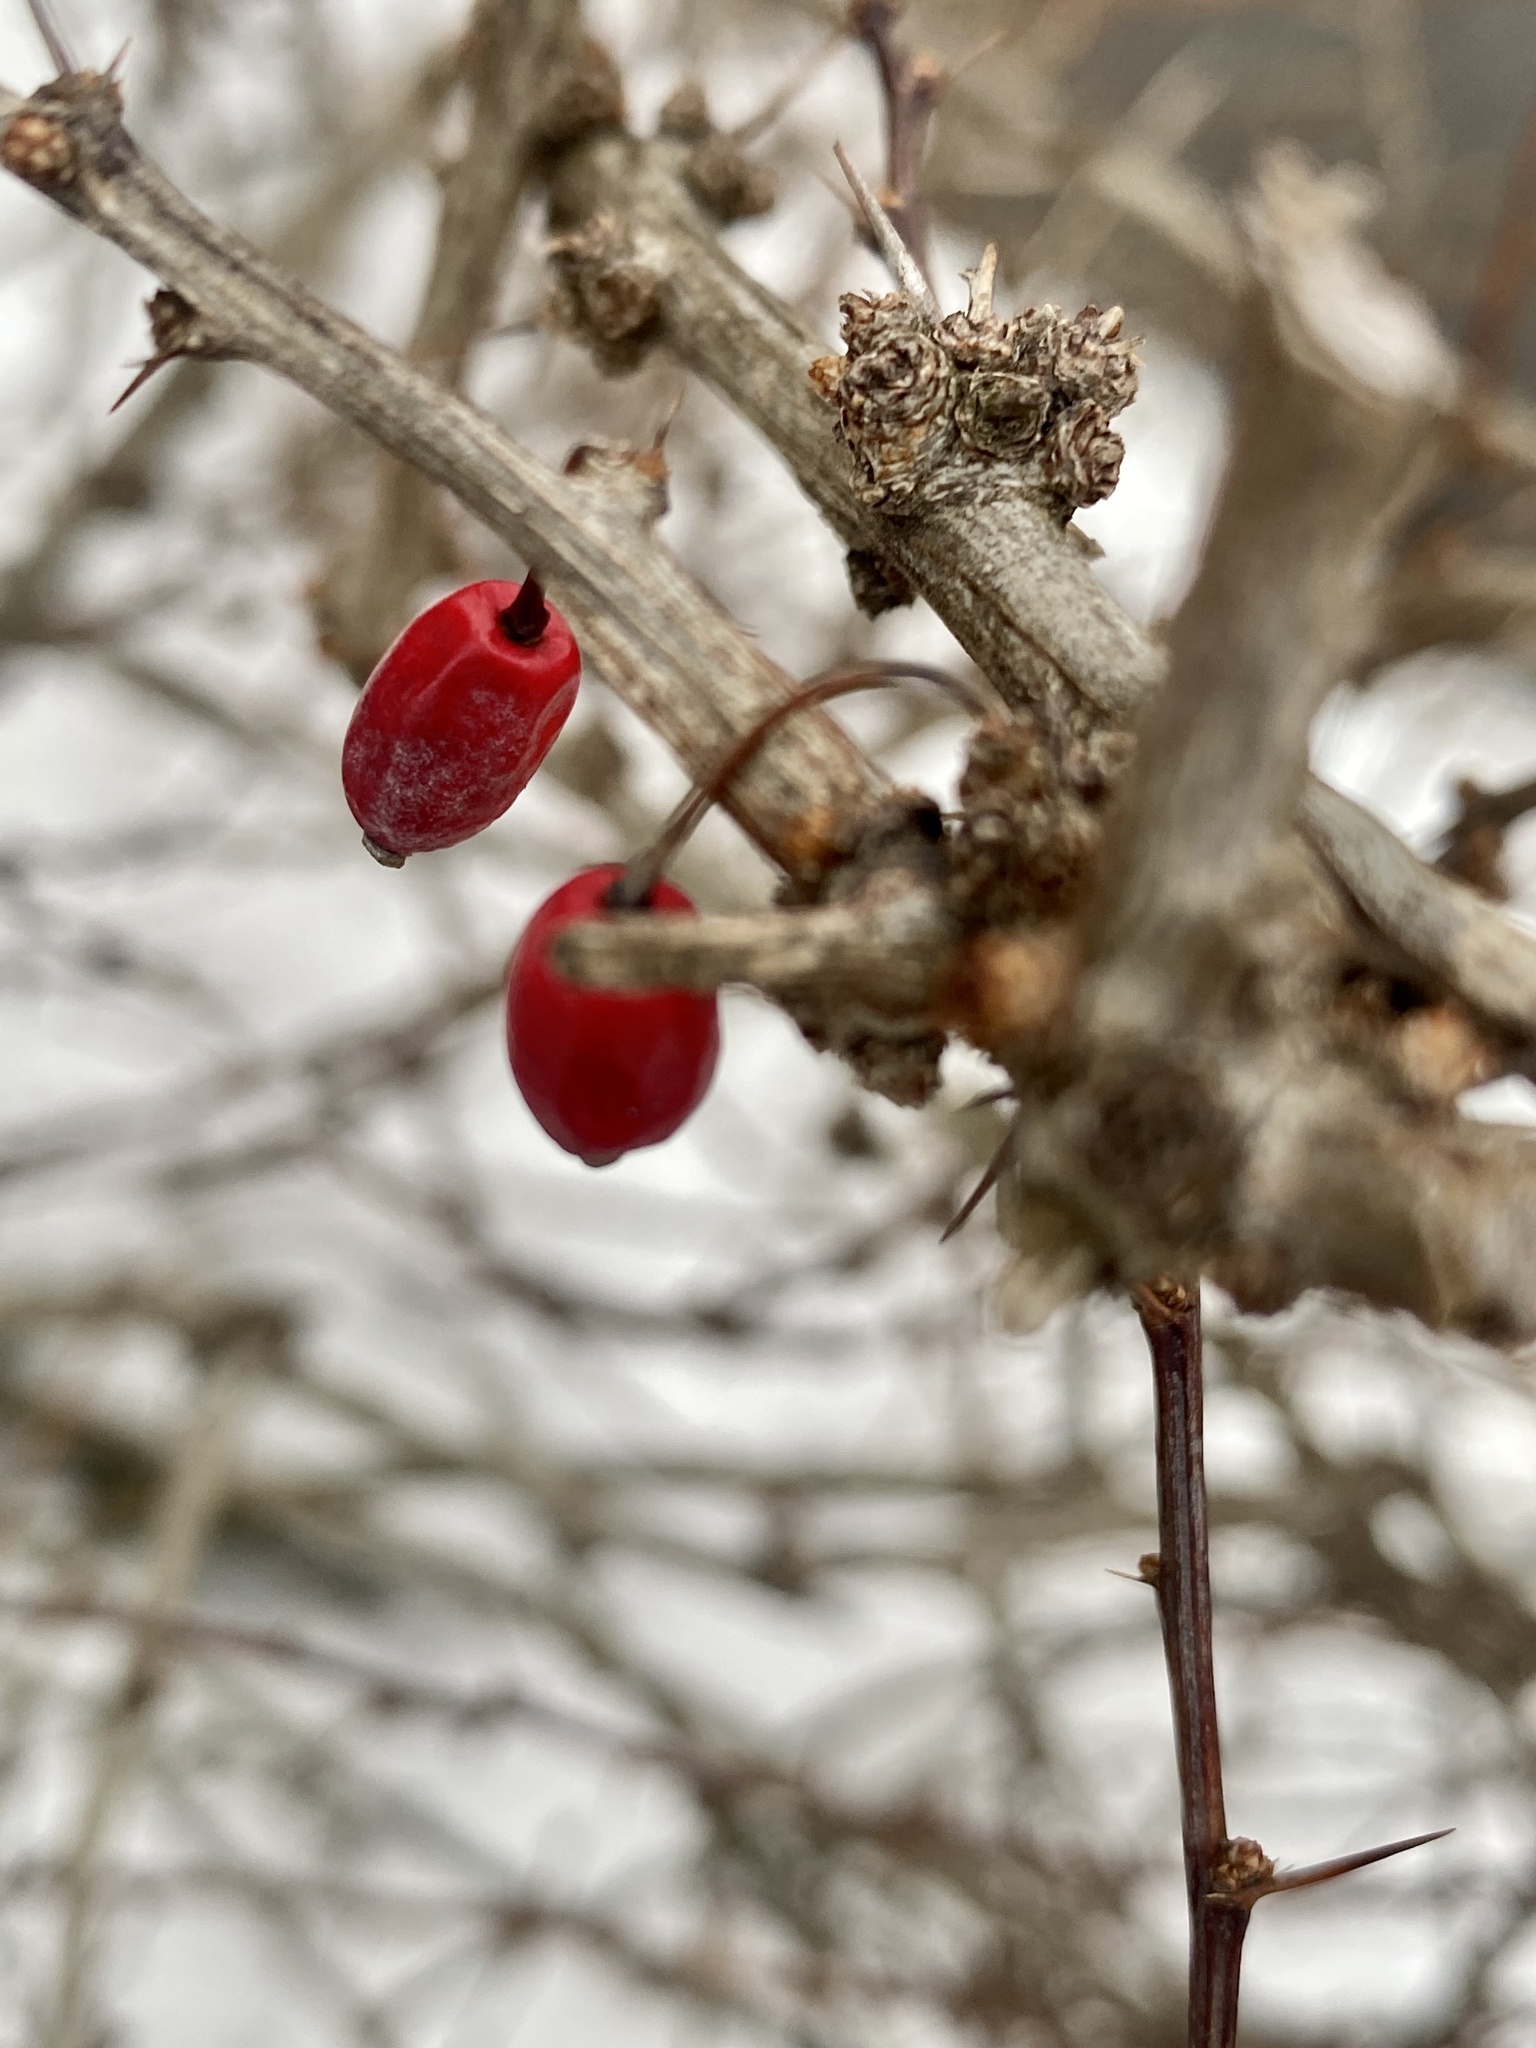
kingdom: Plantae
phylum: Tracheophyta
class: Magnoliopsida
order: Ranunculales
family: Berberidaceae
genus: Berberis
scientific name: Berberis thunbergii
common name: Japanese barberry
